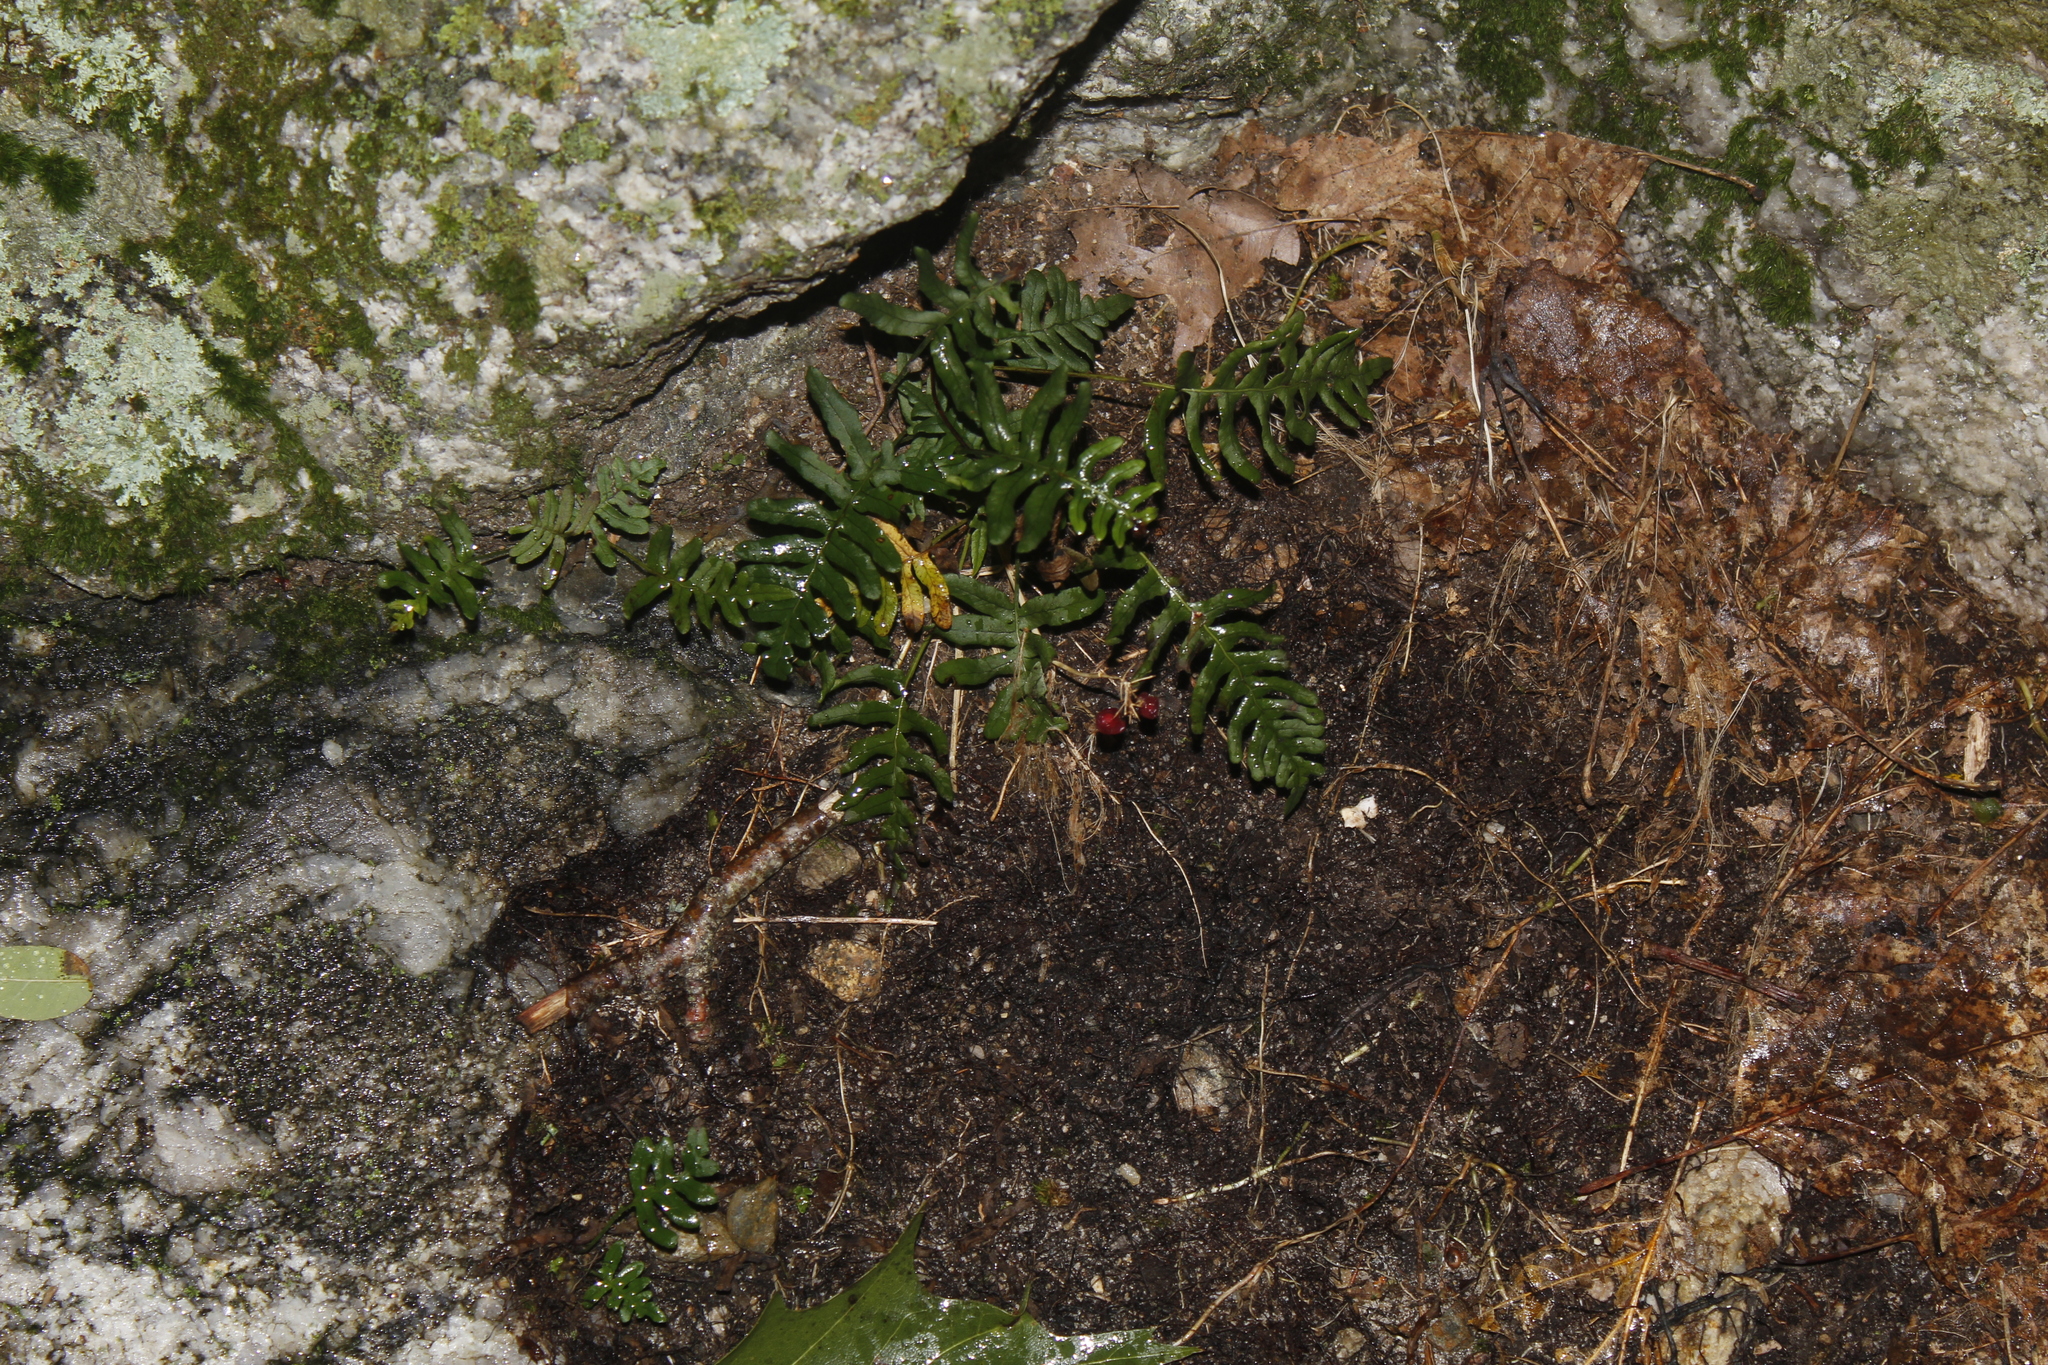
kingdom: Plantae
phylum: Tracheophyta
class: Polypodiopsida
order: Polypodiales
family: Polypodiaceae
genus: Polypodium
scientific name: Polypodium virginianum
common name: American wall fern
